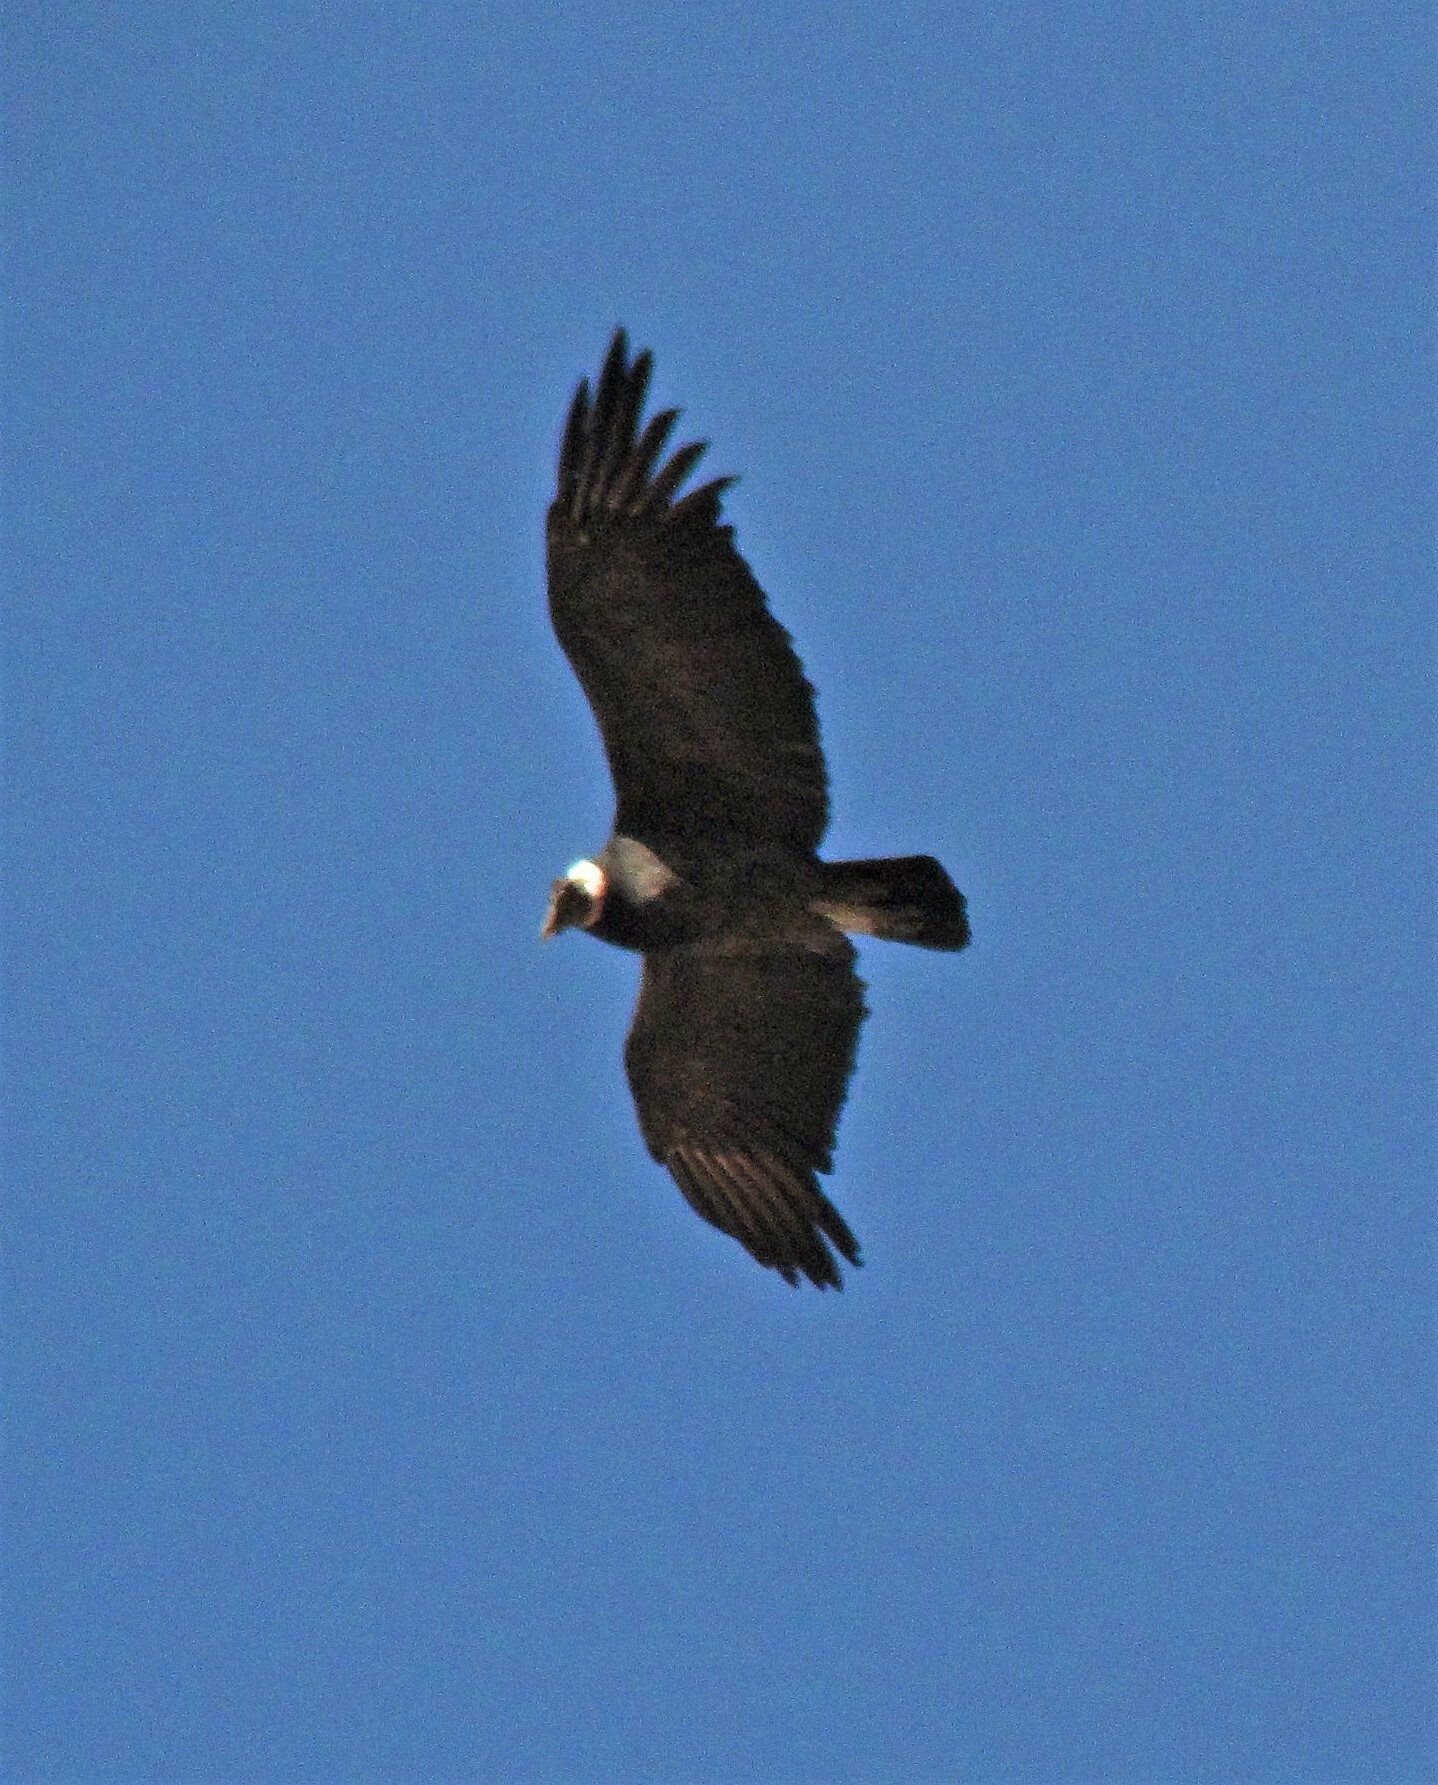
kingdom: Animalia
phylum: Chordata
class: Aves
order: Accipitriformes
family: Cathartidae
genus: Vultur
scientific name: Vultur gryphus
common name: Andean condor
